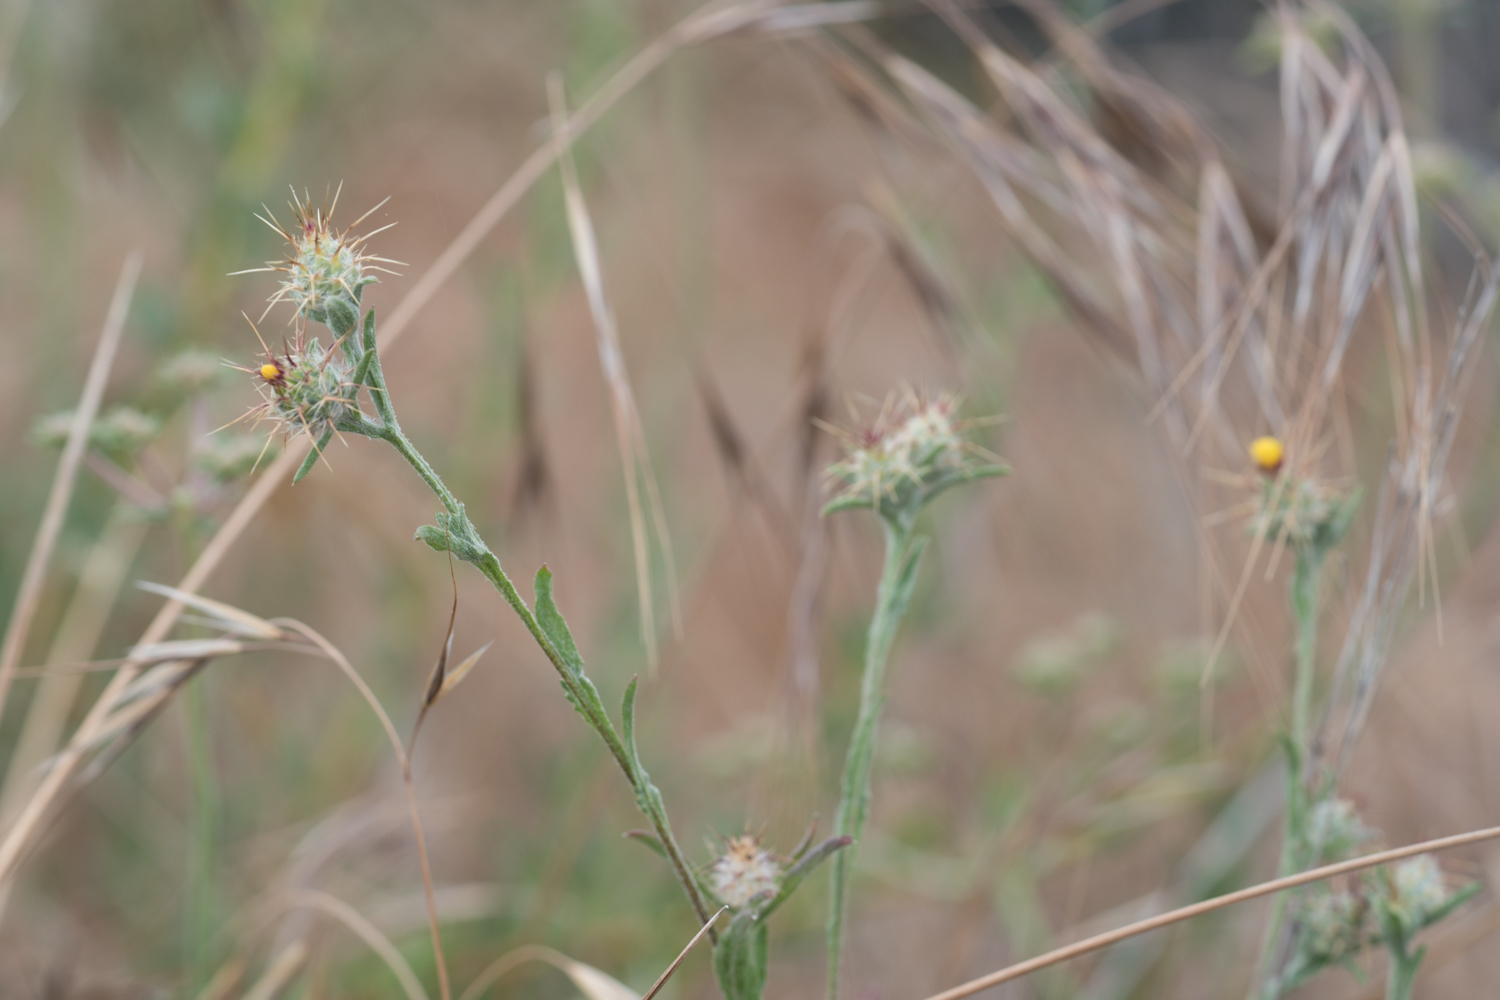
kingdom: Plantae
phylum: Tracheophyta
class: Magnoliopsida
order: Asterales
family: Asteraceae
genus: Centaurea
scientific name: Centaurea melitensis
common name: Maltese star-thistle
